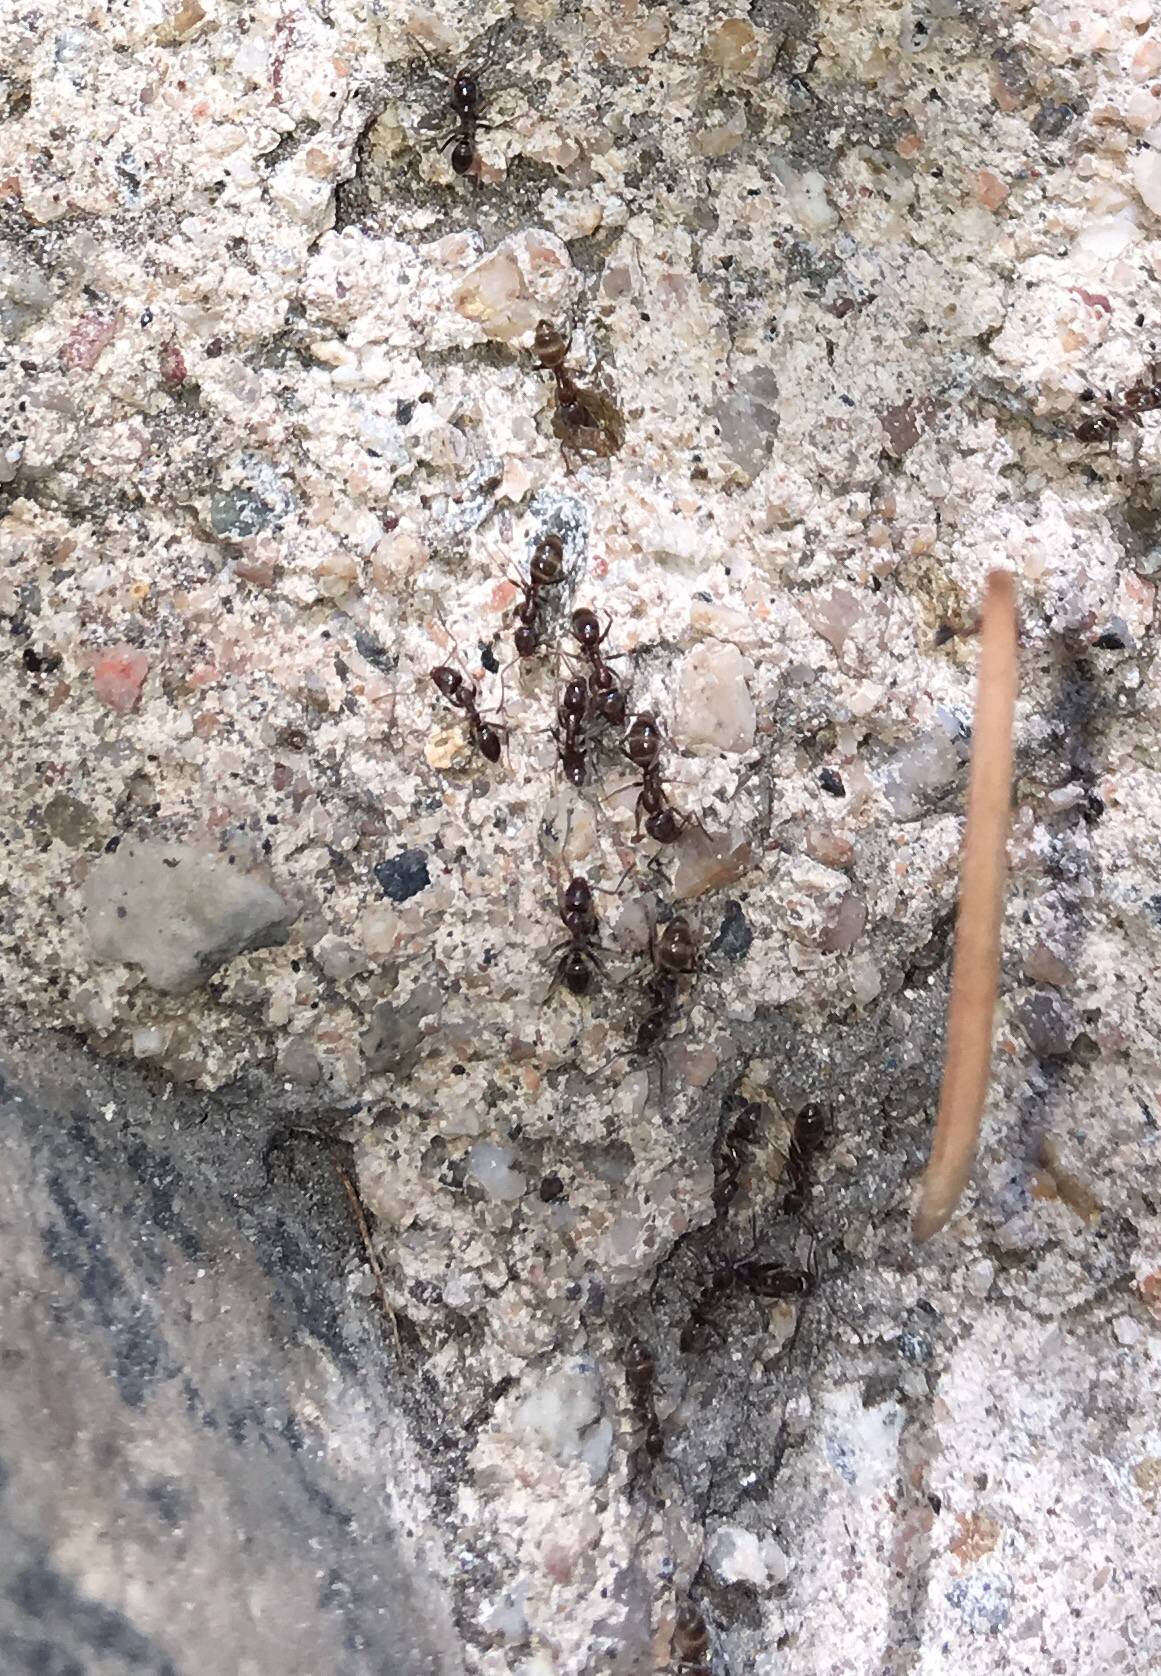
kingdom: Animalia
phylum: Arthropoda
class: Insecta
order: Hymenoptera
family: Formicidae
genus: Linepithema
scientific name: Linepithema humile
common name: Argentine ant
